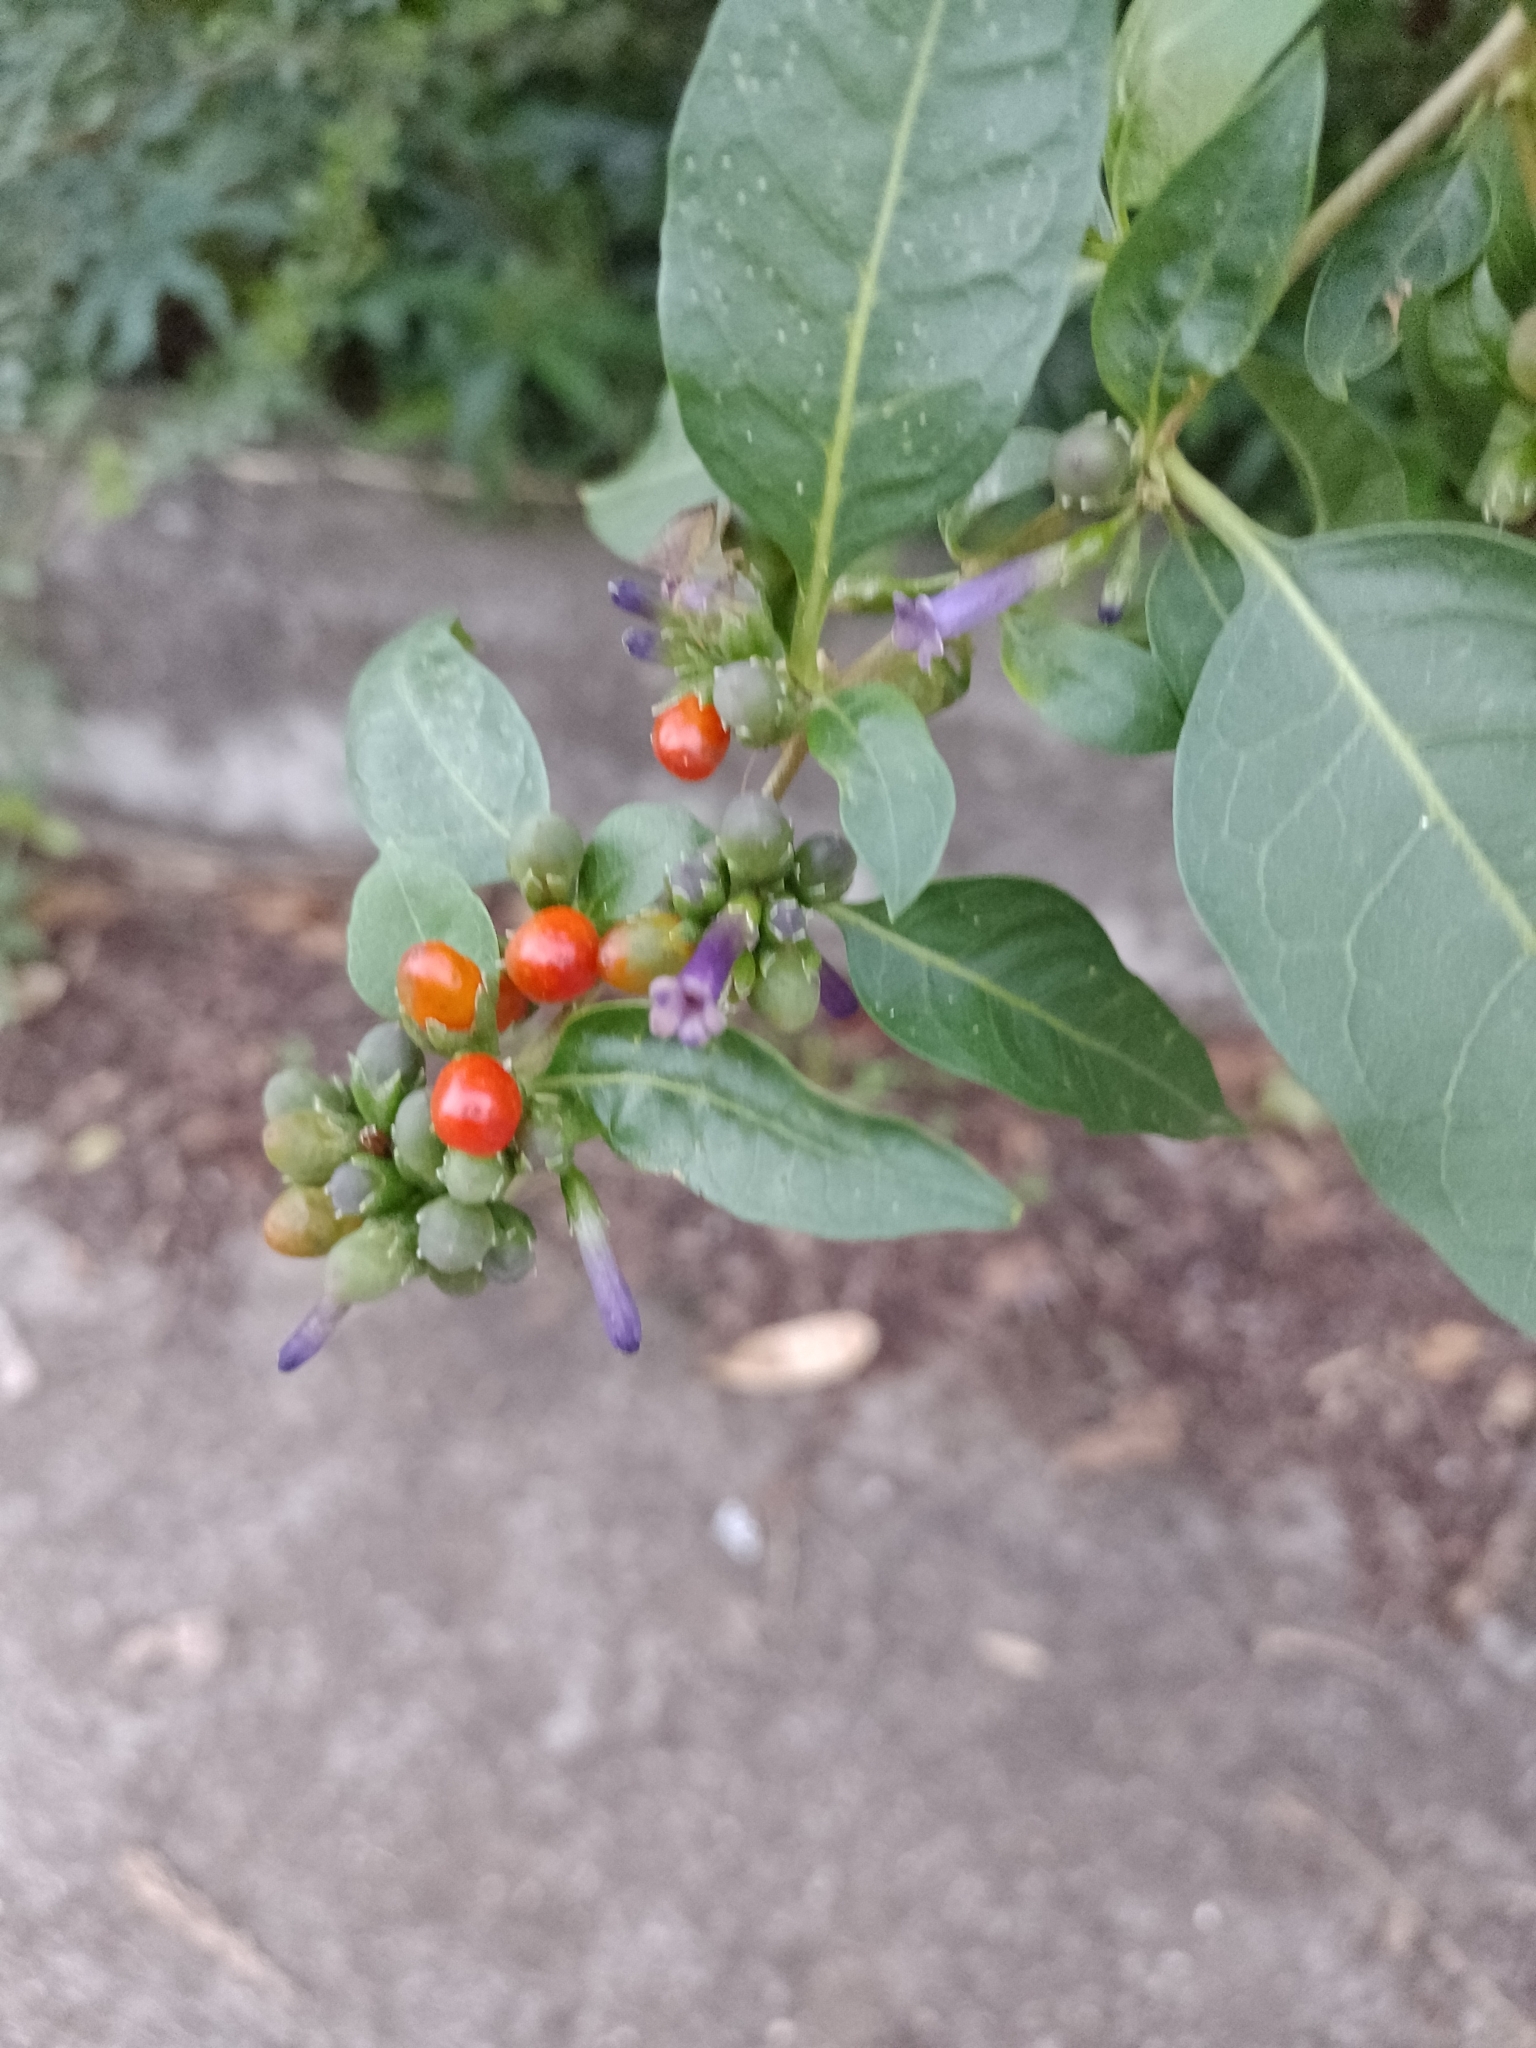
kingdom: Plantae
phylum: Tracheophyta
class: Magnoliopsida
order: Solanales
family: Solanaceae
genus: Lycium
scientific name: Lycium cestroides
